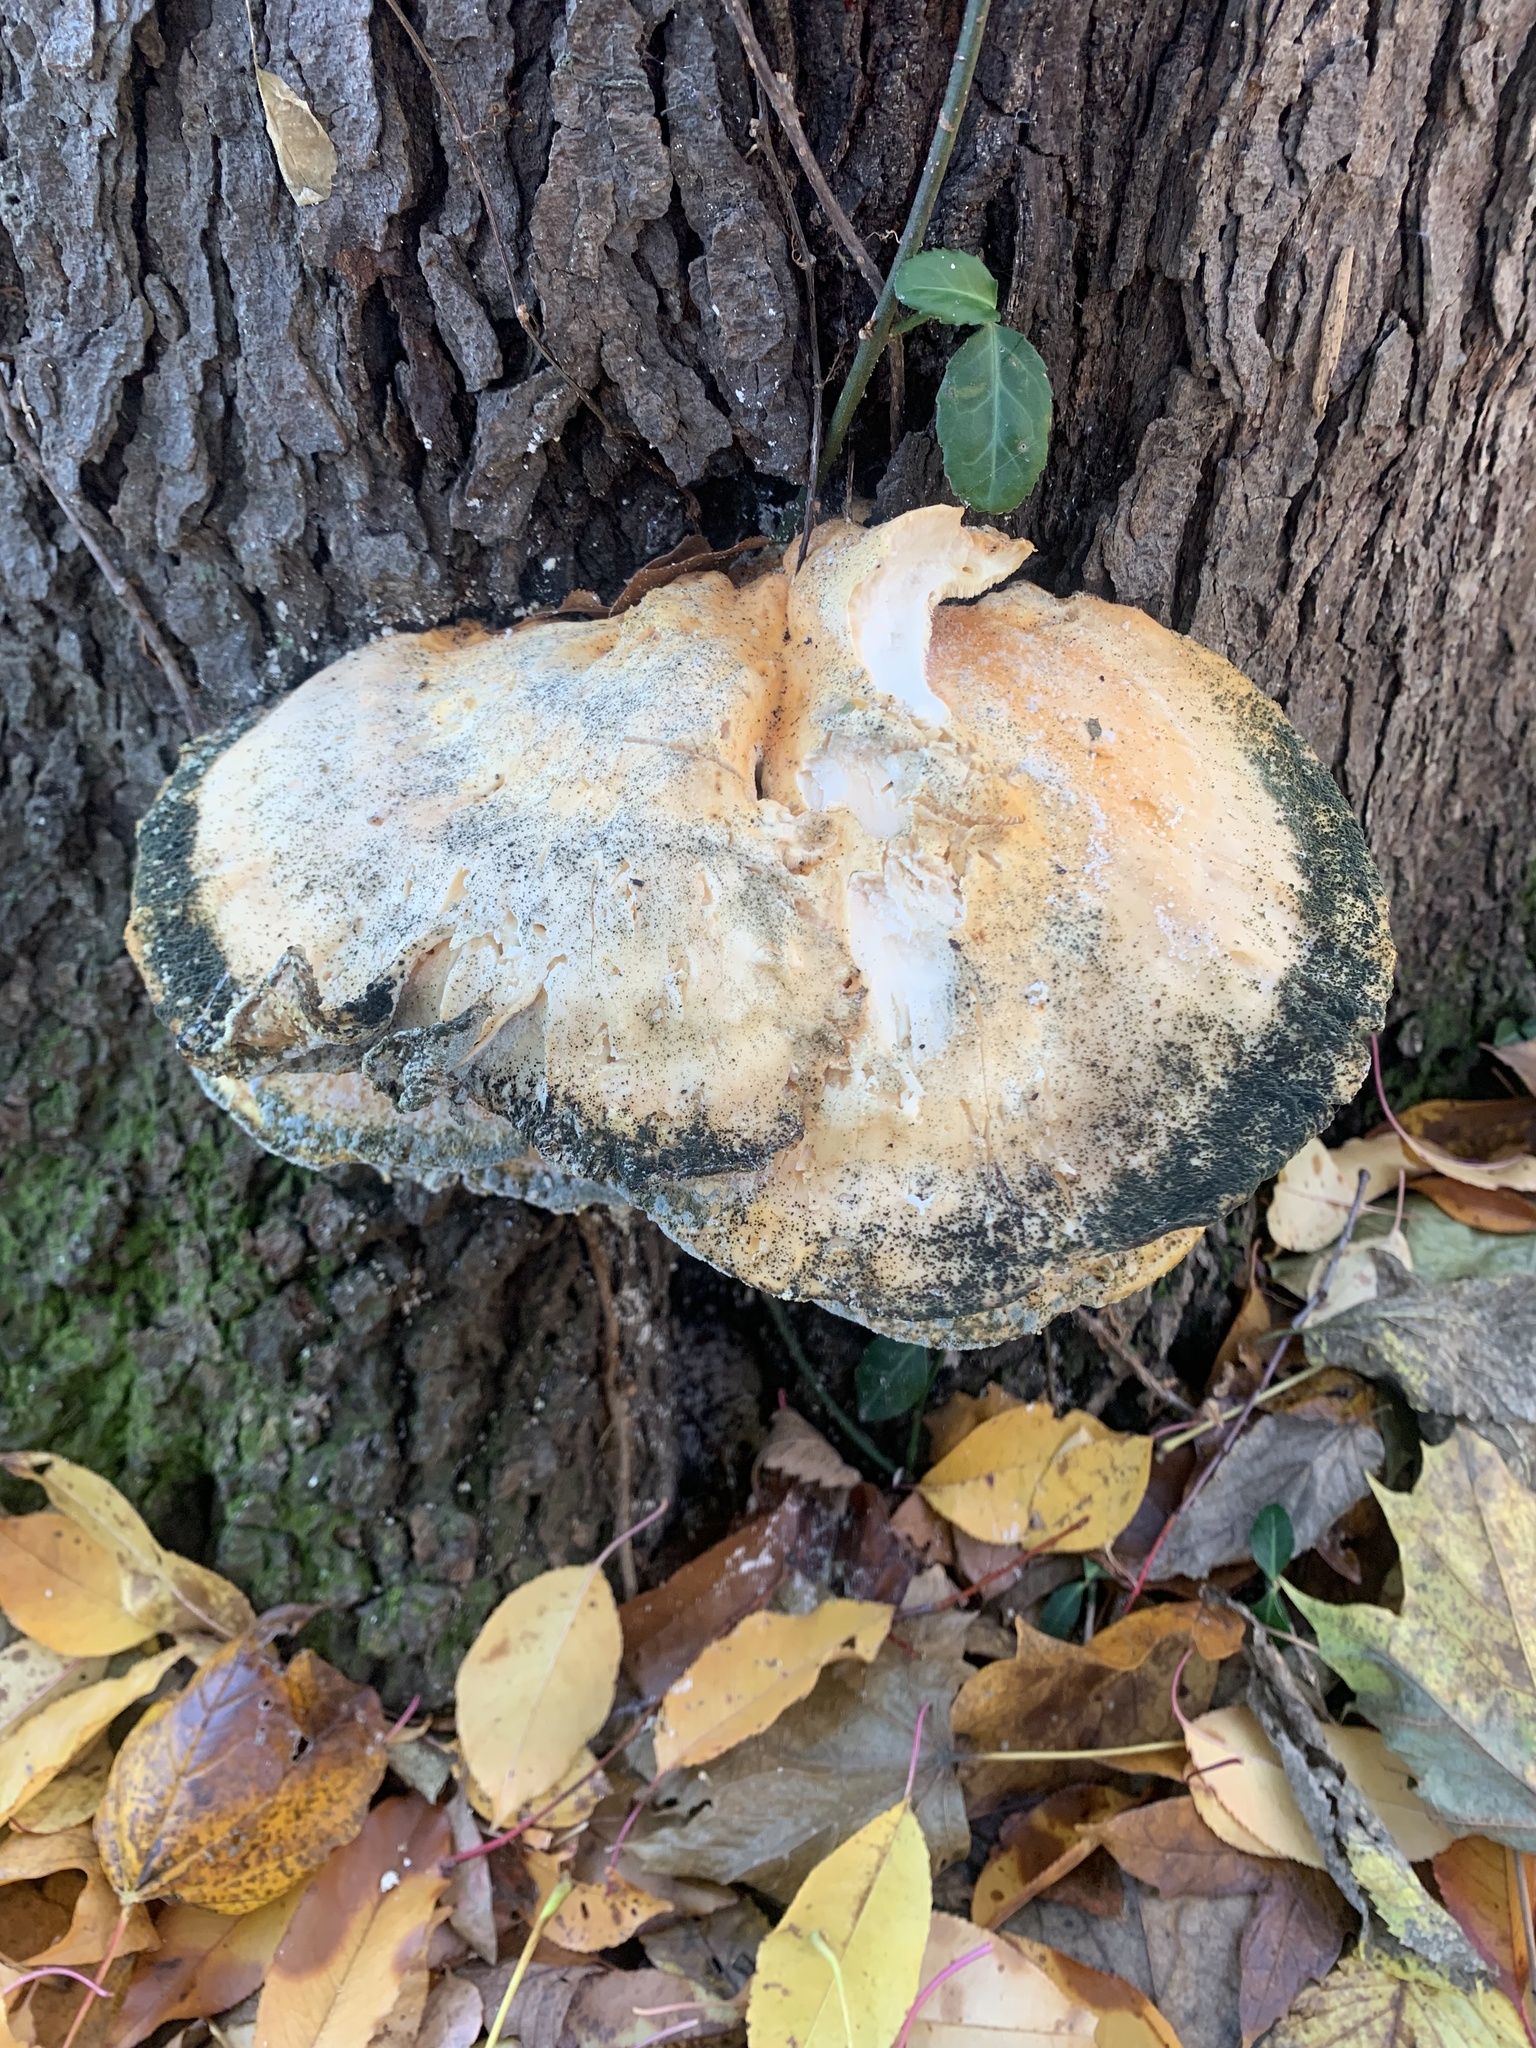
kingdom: Fungi
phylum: Basidiomycota
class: Agaricomycetes
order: Polyporales
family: Laetiporaceae
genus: Laetiporus
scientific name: Laetiporus sulphureus
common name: Chicken of the woods
